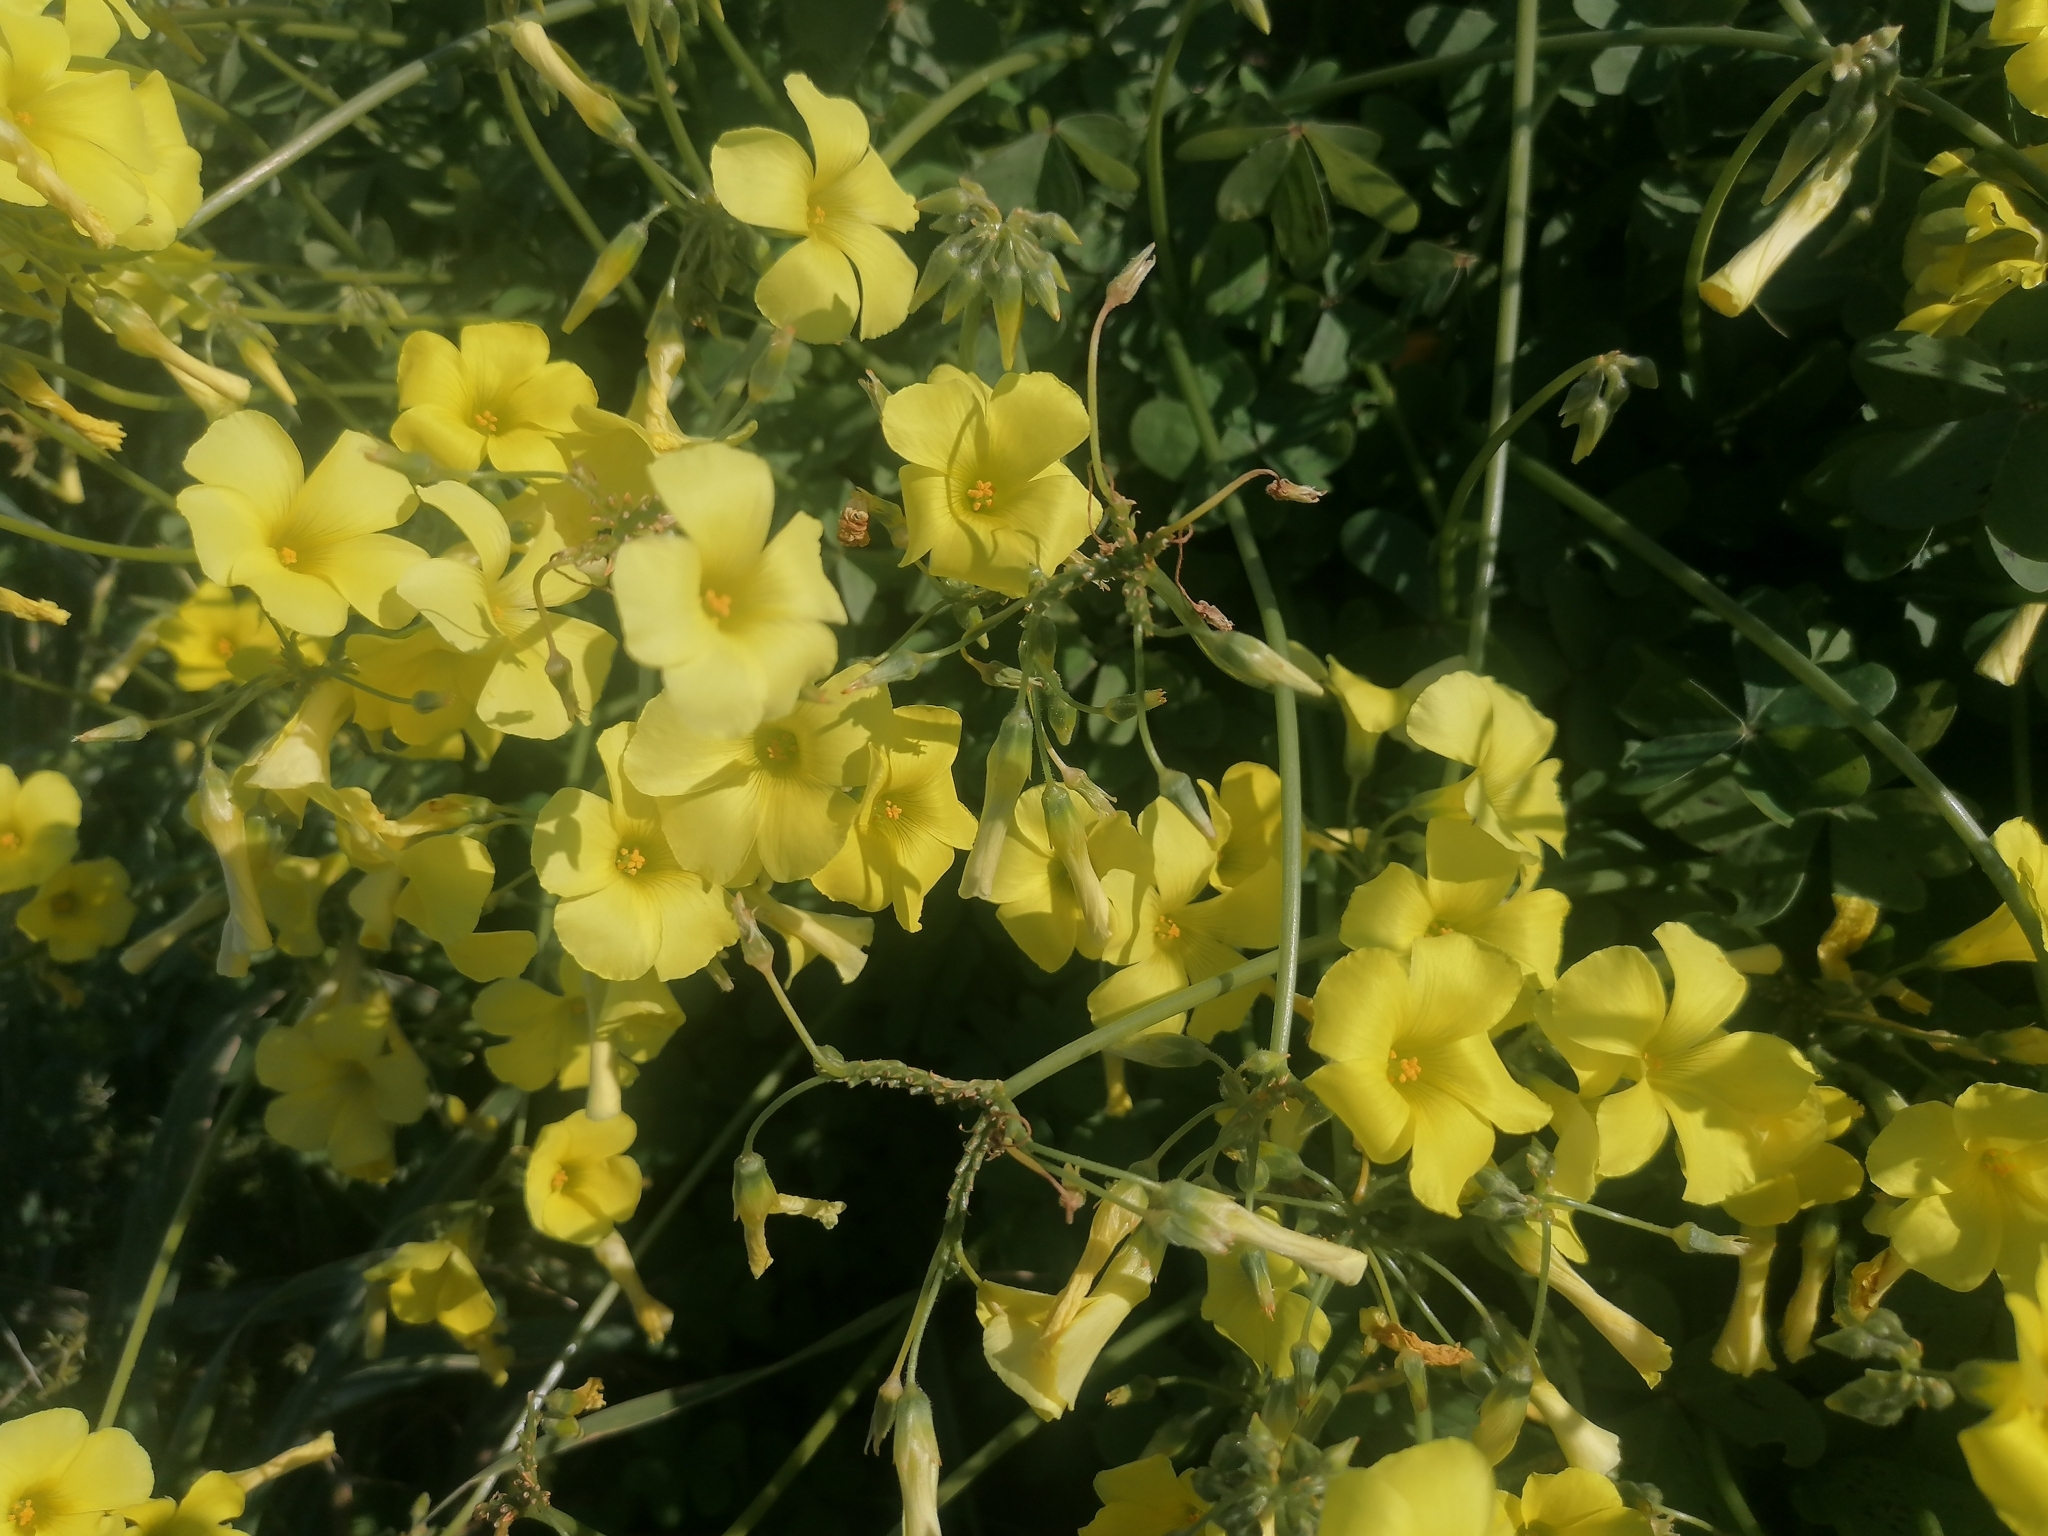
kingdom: Plantae
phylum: Tracheophyta
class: Magnoliopsida
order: Oxalidales
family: Oxalidaceae
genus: Oxalis
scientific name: Oxalis pes-caprae
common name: Bermuda-buttercup
